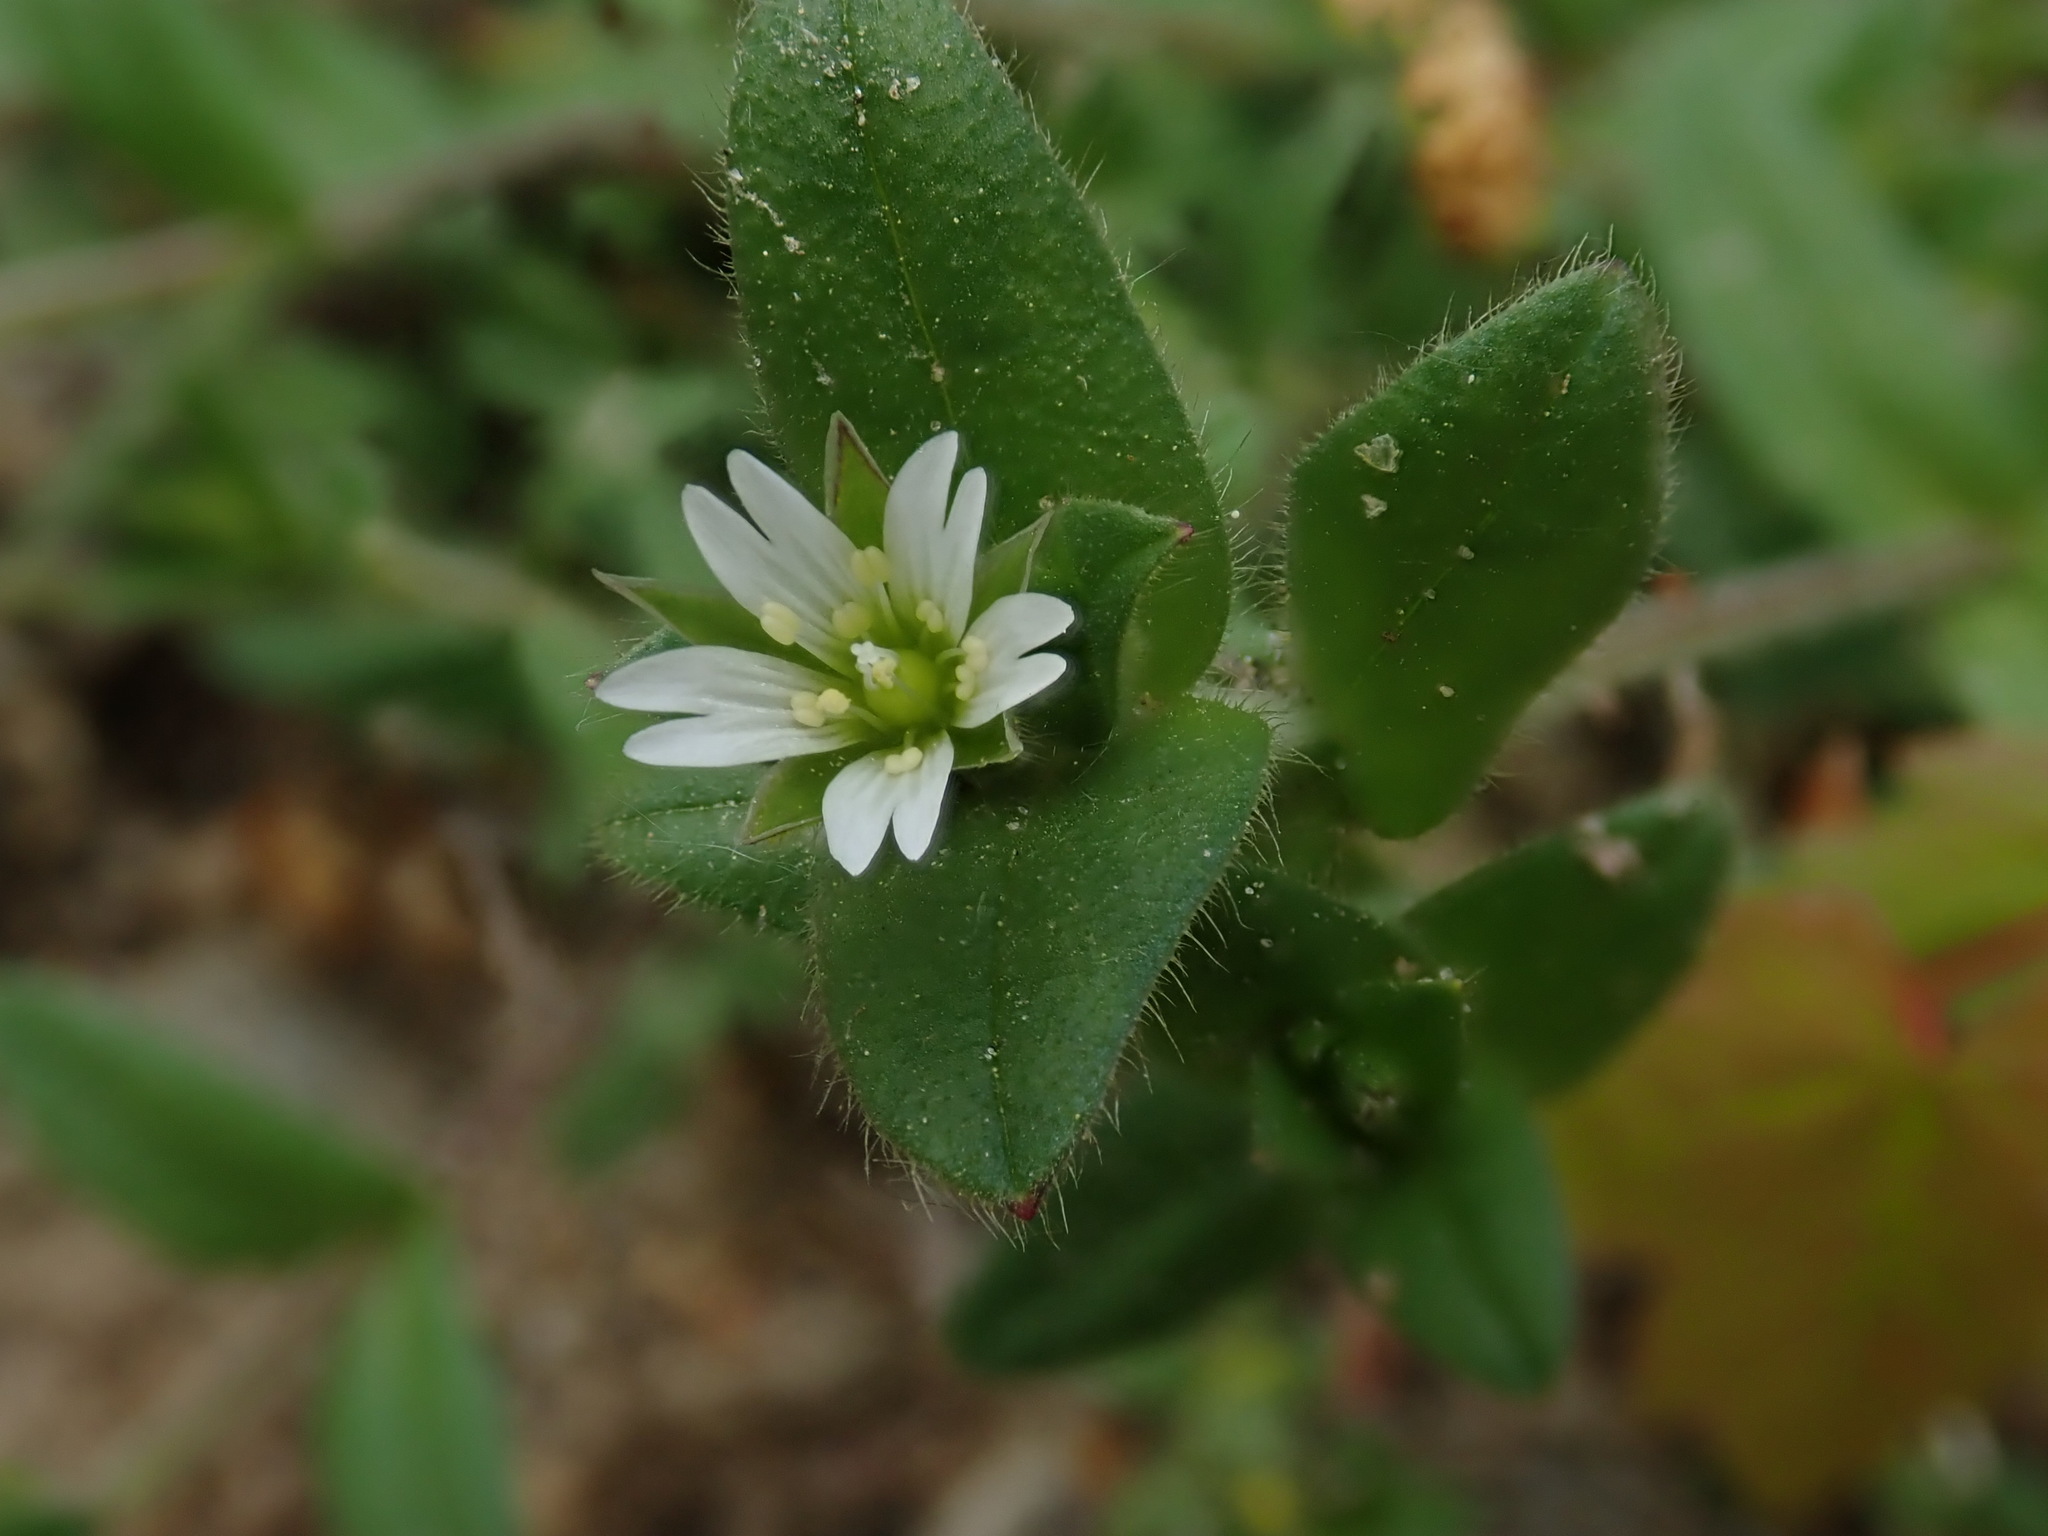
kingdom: Plantae
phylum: Tracheophyta
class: Magnoliopsida
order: Caryophyllales
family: Caryophyllaceae
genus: Cerastium
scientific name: Cerastium fontanum
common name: Common mouse-ear
